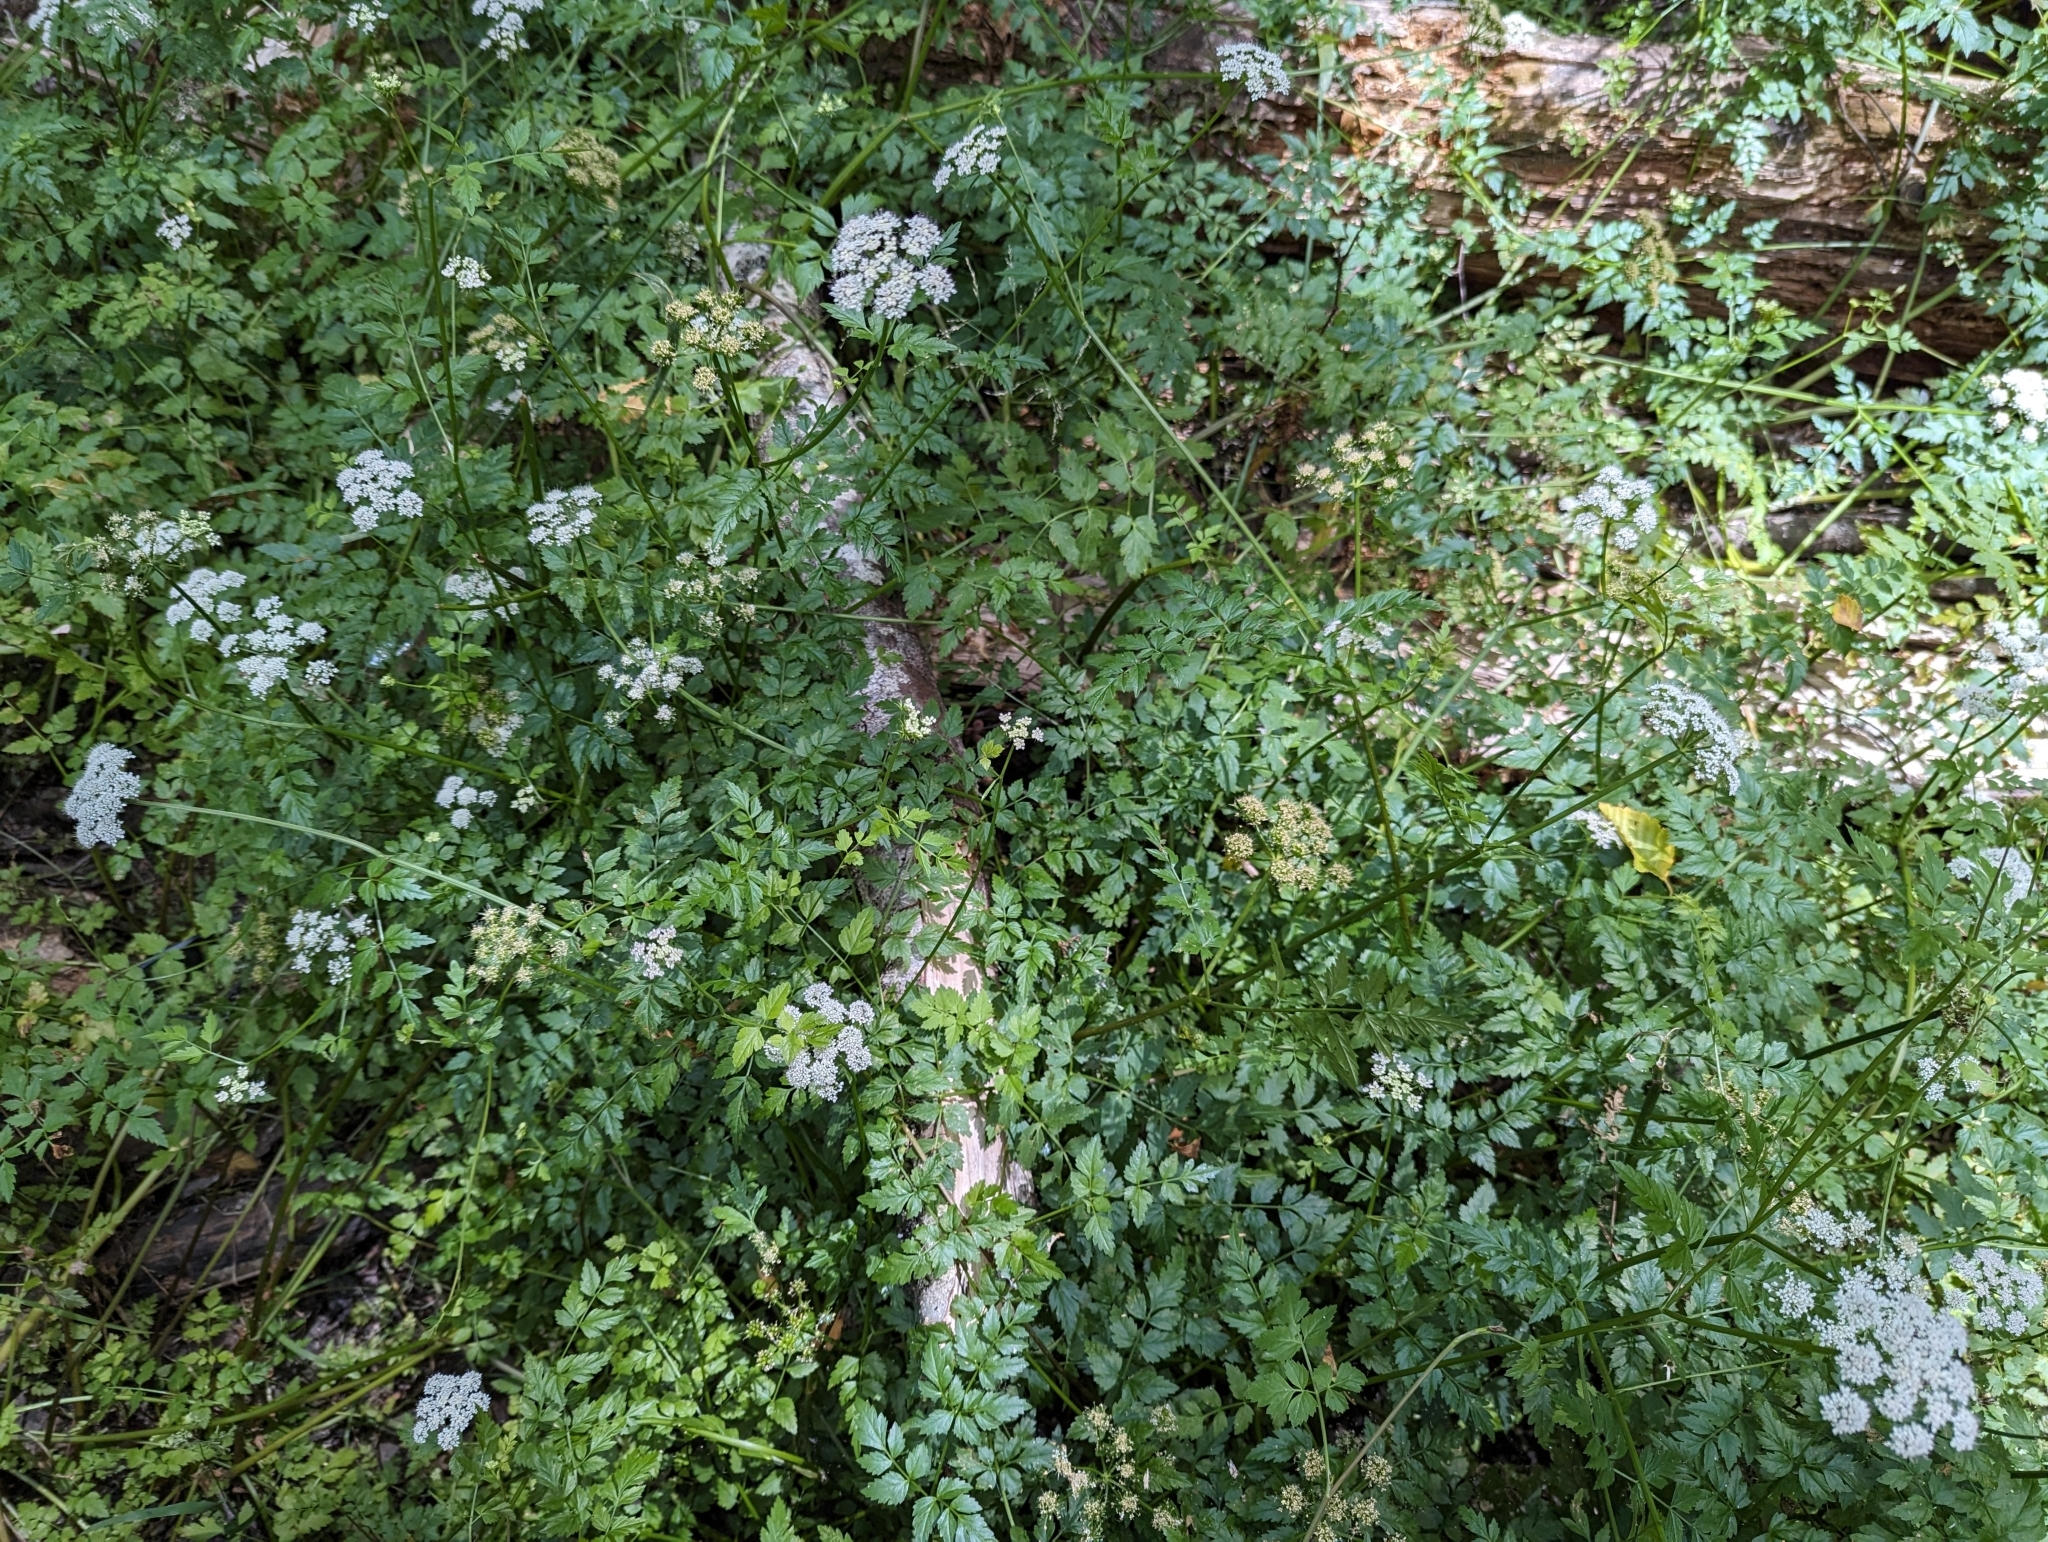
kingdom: Plantae
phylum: Tracheophyta
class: Magnoliopsida
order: Apiales
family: Apiaceae
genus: Oenanthe
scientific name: Oenanthe sarmentosa
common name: American water-parsley
